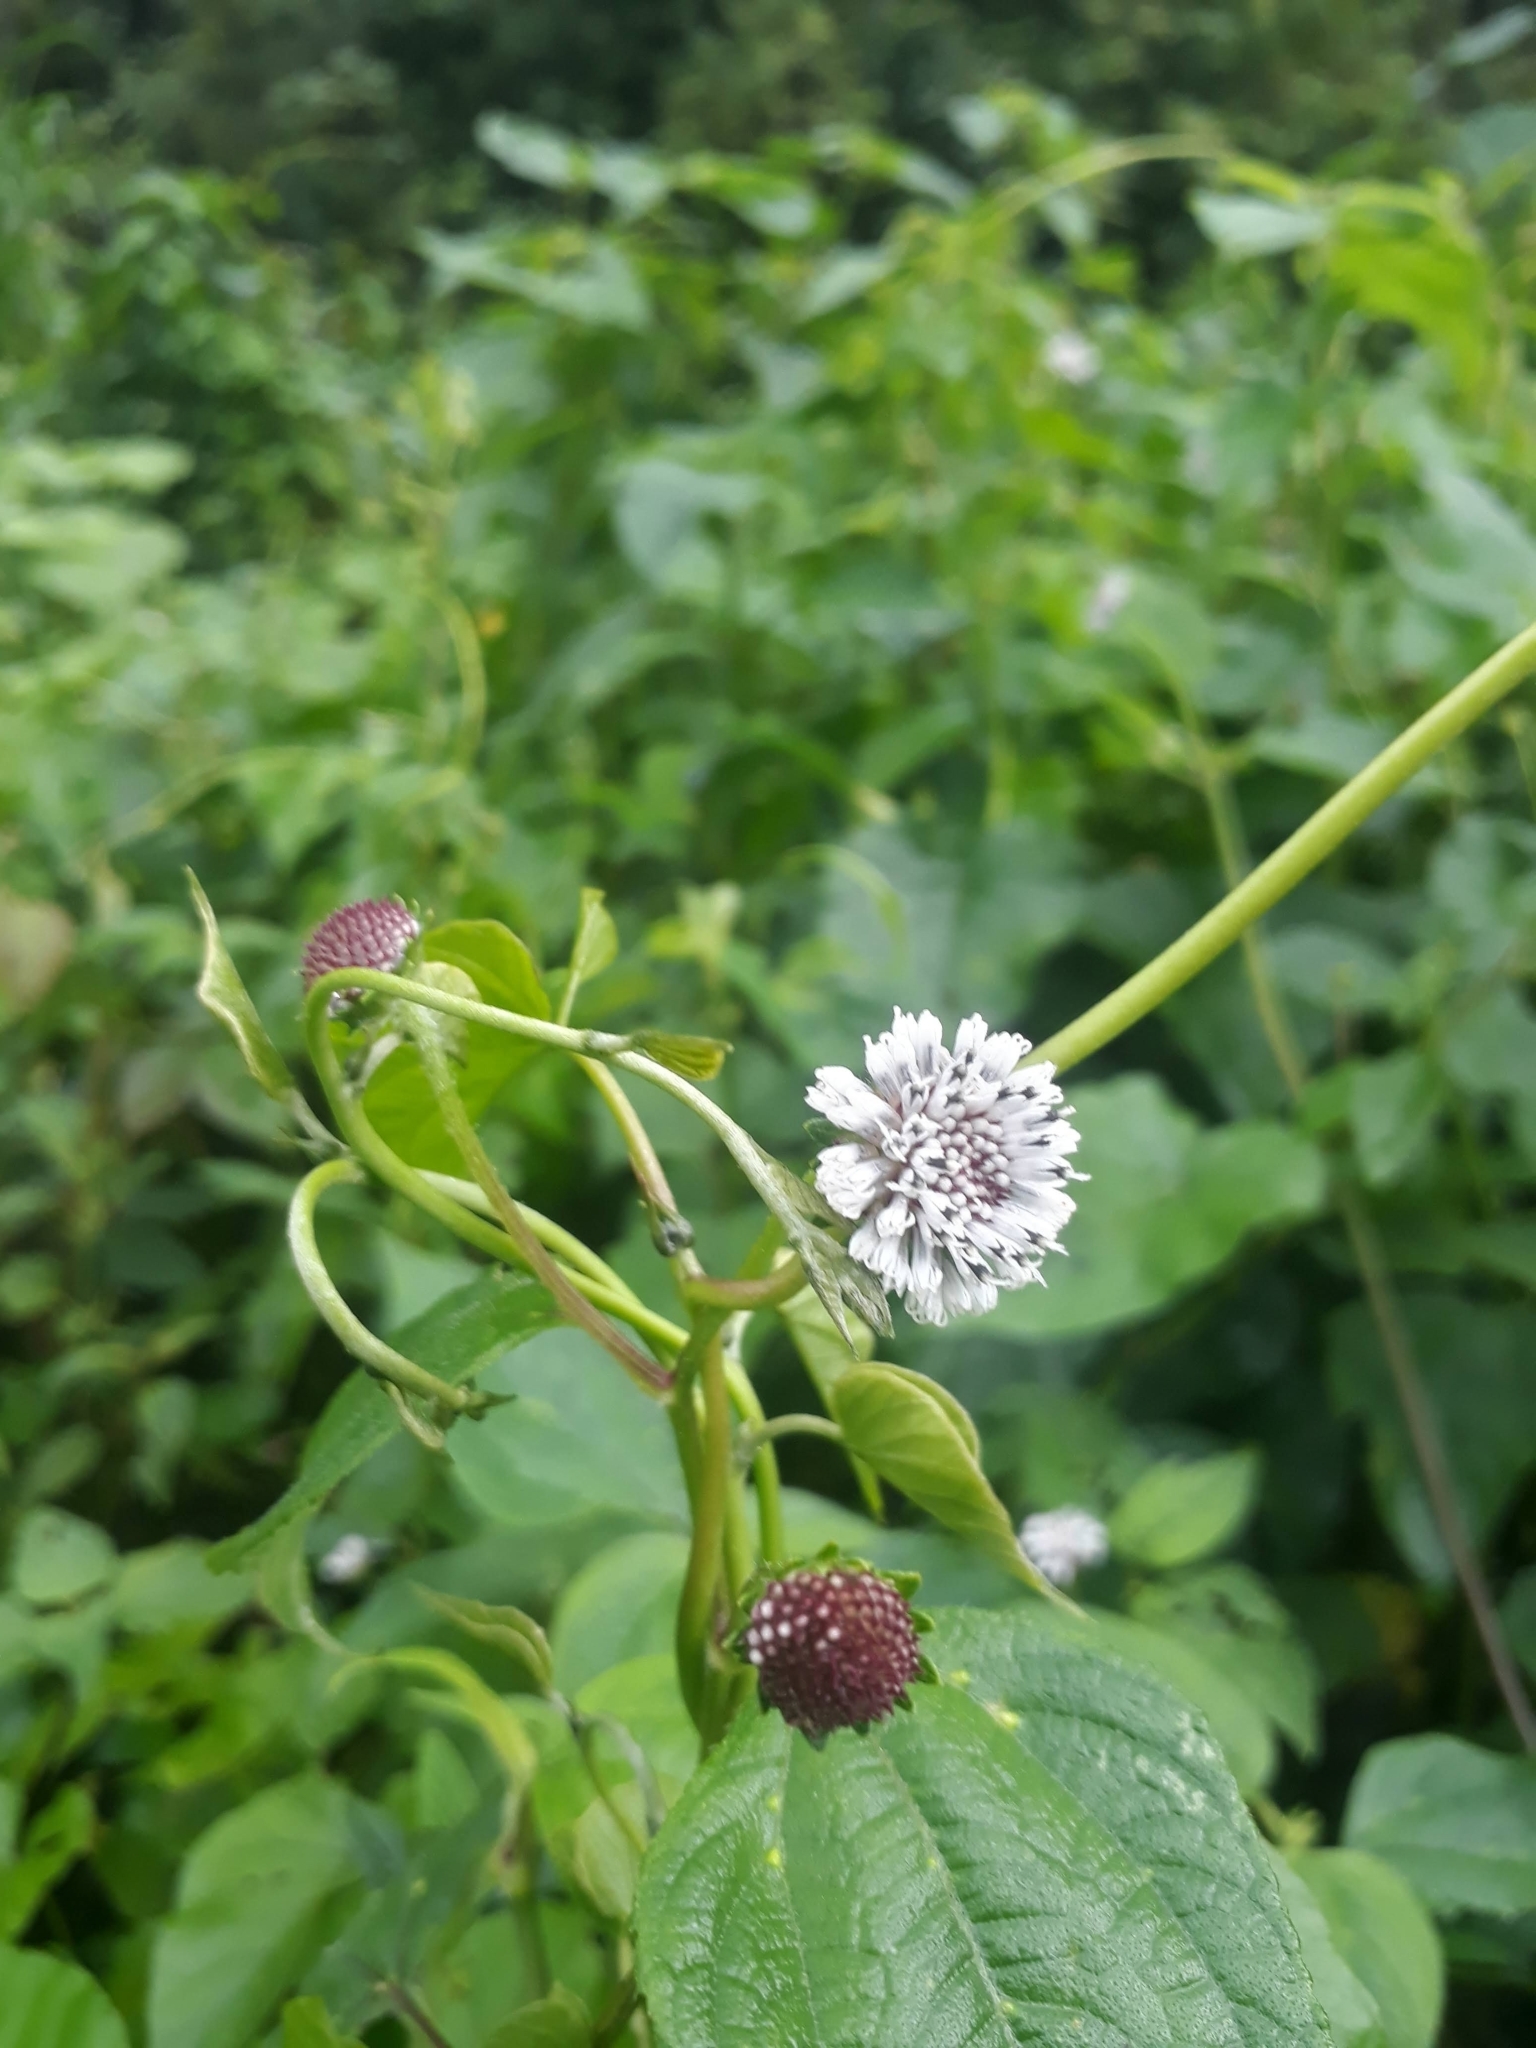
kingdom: Plantae
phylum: Tracheophyta
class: Magnoliopsida
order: Asterales
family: Asteraceae
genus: Melanthera
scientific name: Melanthera nivea
